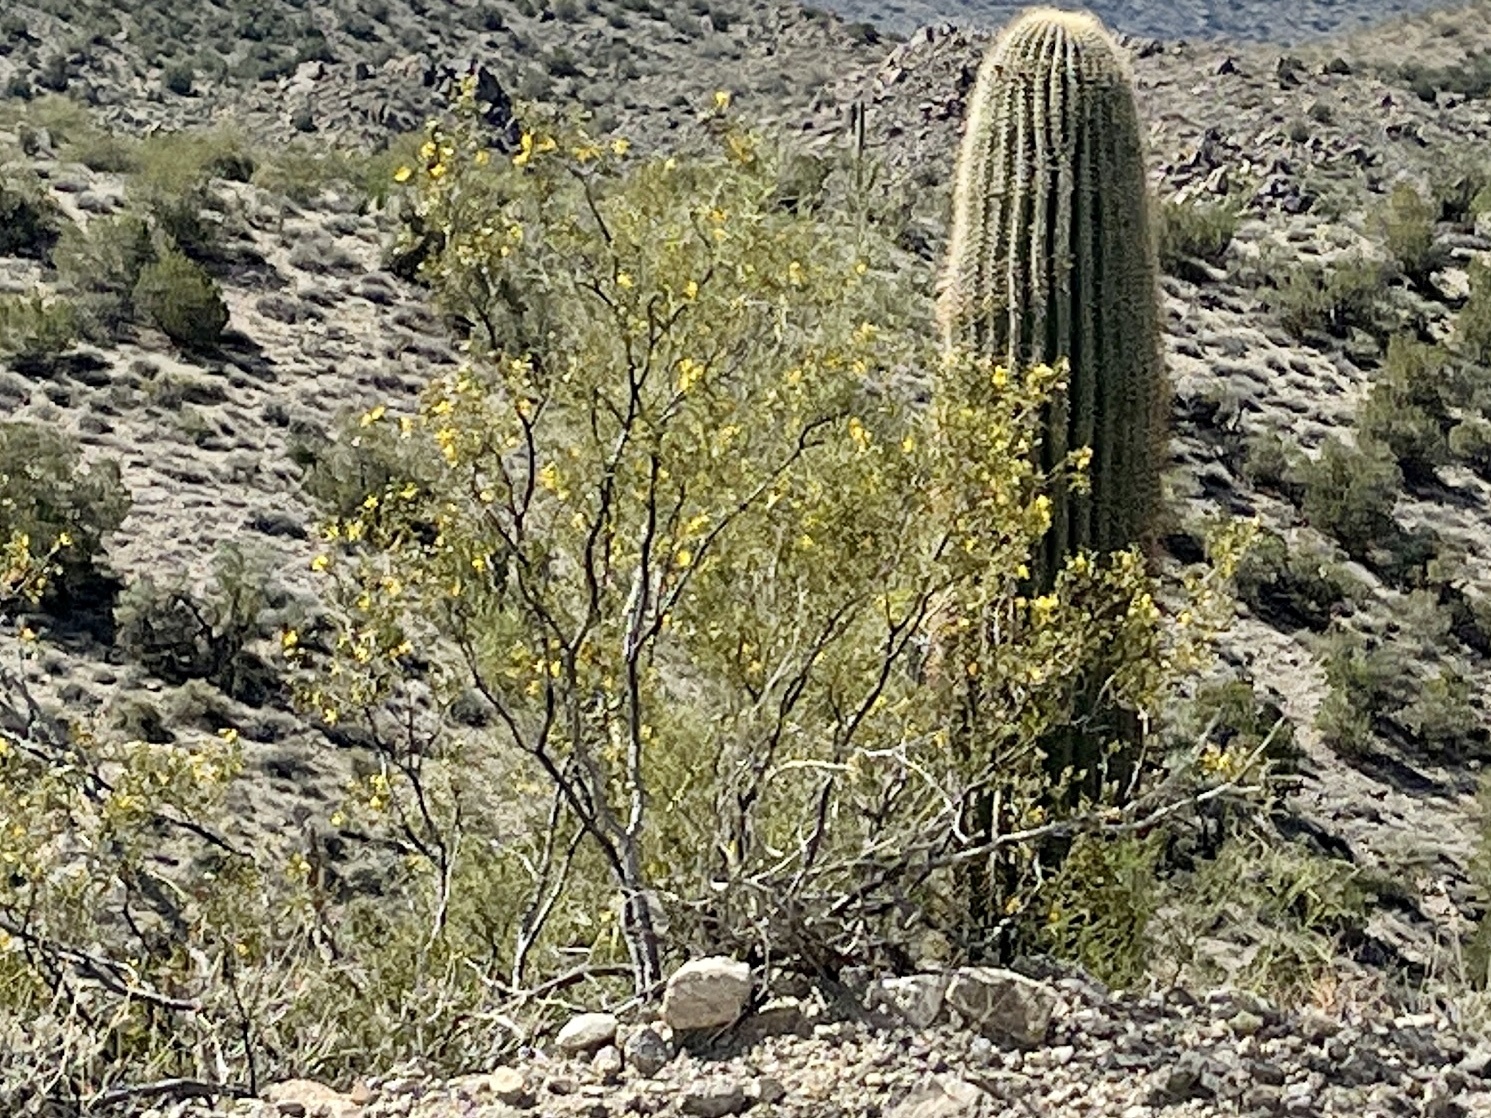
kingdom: Plantae
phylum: Tracheophyta
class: Magnoliopsida
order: Zygophyllales
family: Zygophyllaceae
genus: Larrea
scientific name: Larrea tridentata
